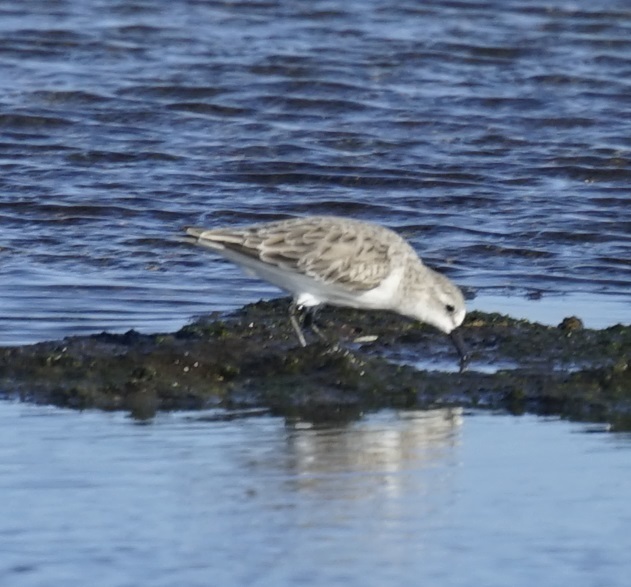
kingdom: Animalia
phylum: Chordata
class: Aves
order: Charadriiformes
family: Scolopacidae
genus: Calidris
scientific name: Calidris ruficollis
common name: Red-necked stint
